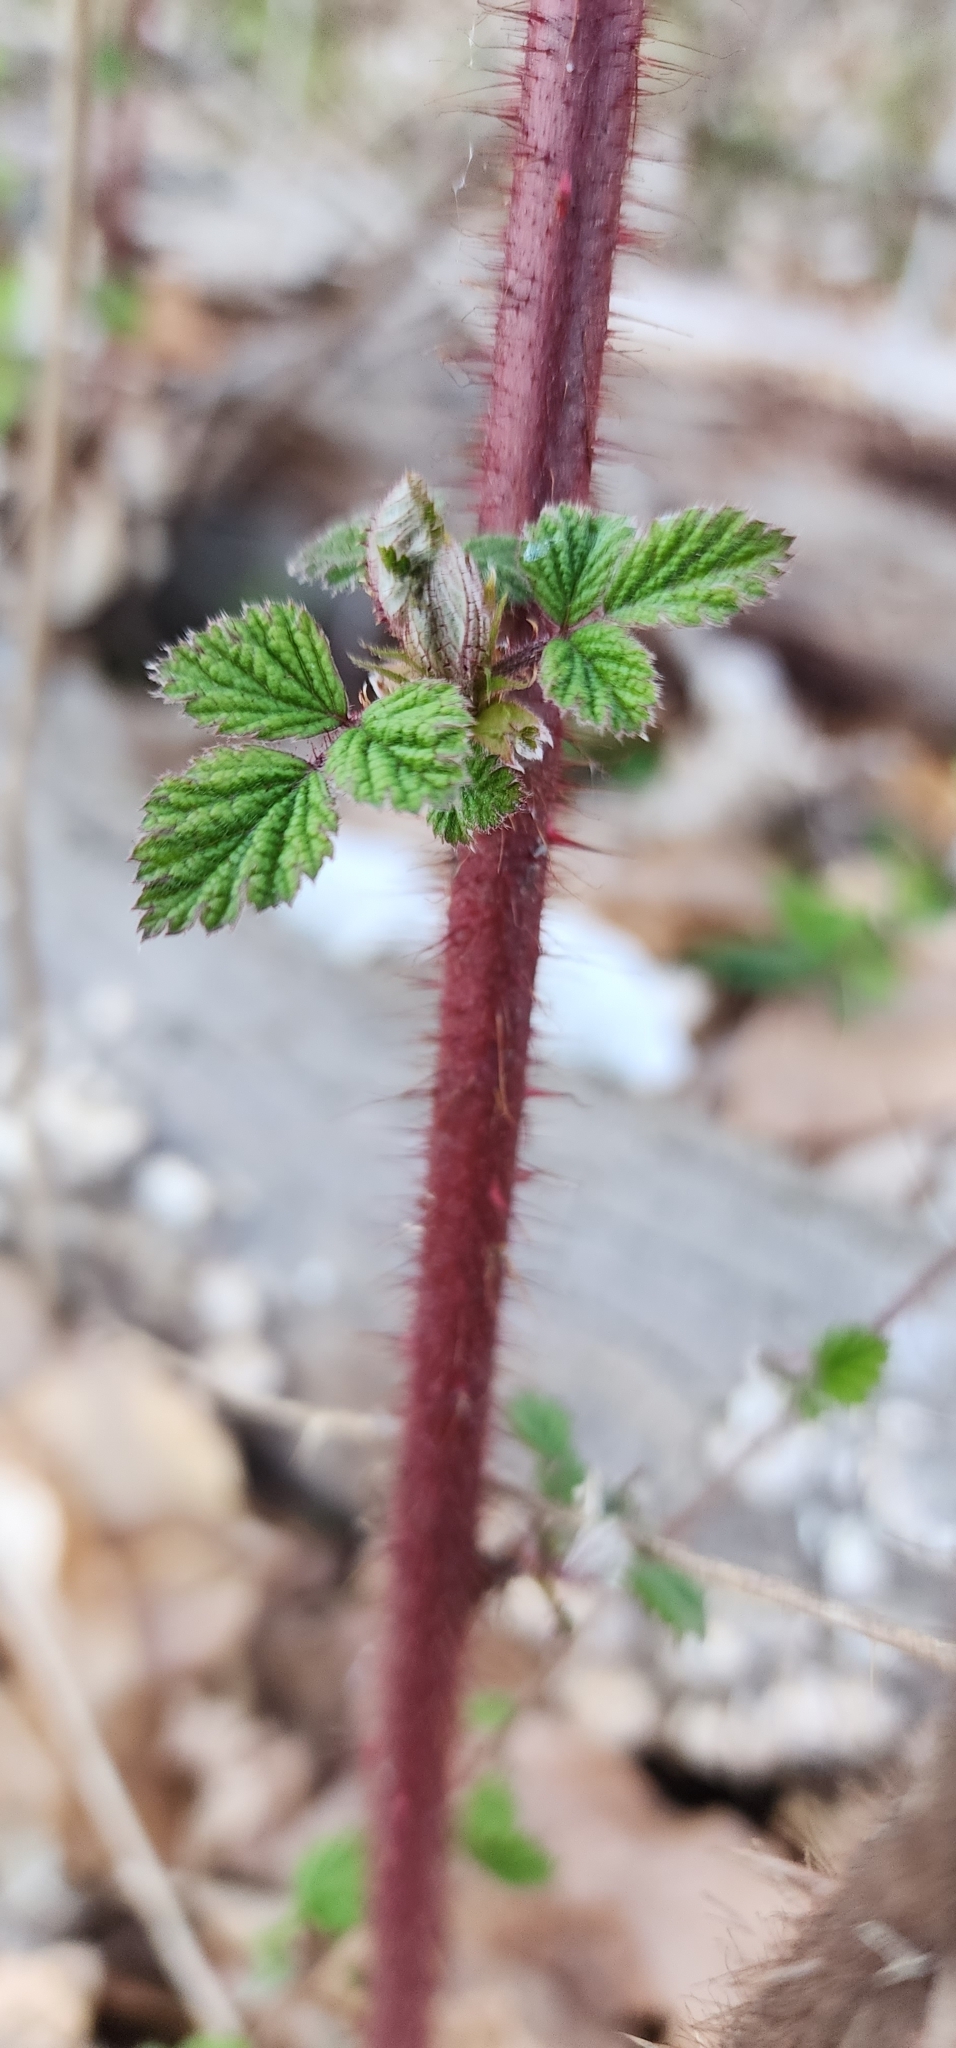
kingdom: Plantae
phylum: Tracheophyta
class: Magnoliopsida
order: Rosales
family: Rosaceae
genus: Rubus
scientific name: Rubus phoenicolasius
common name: Japanese wineberry
